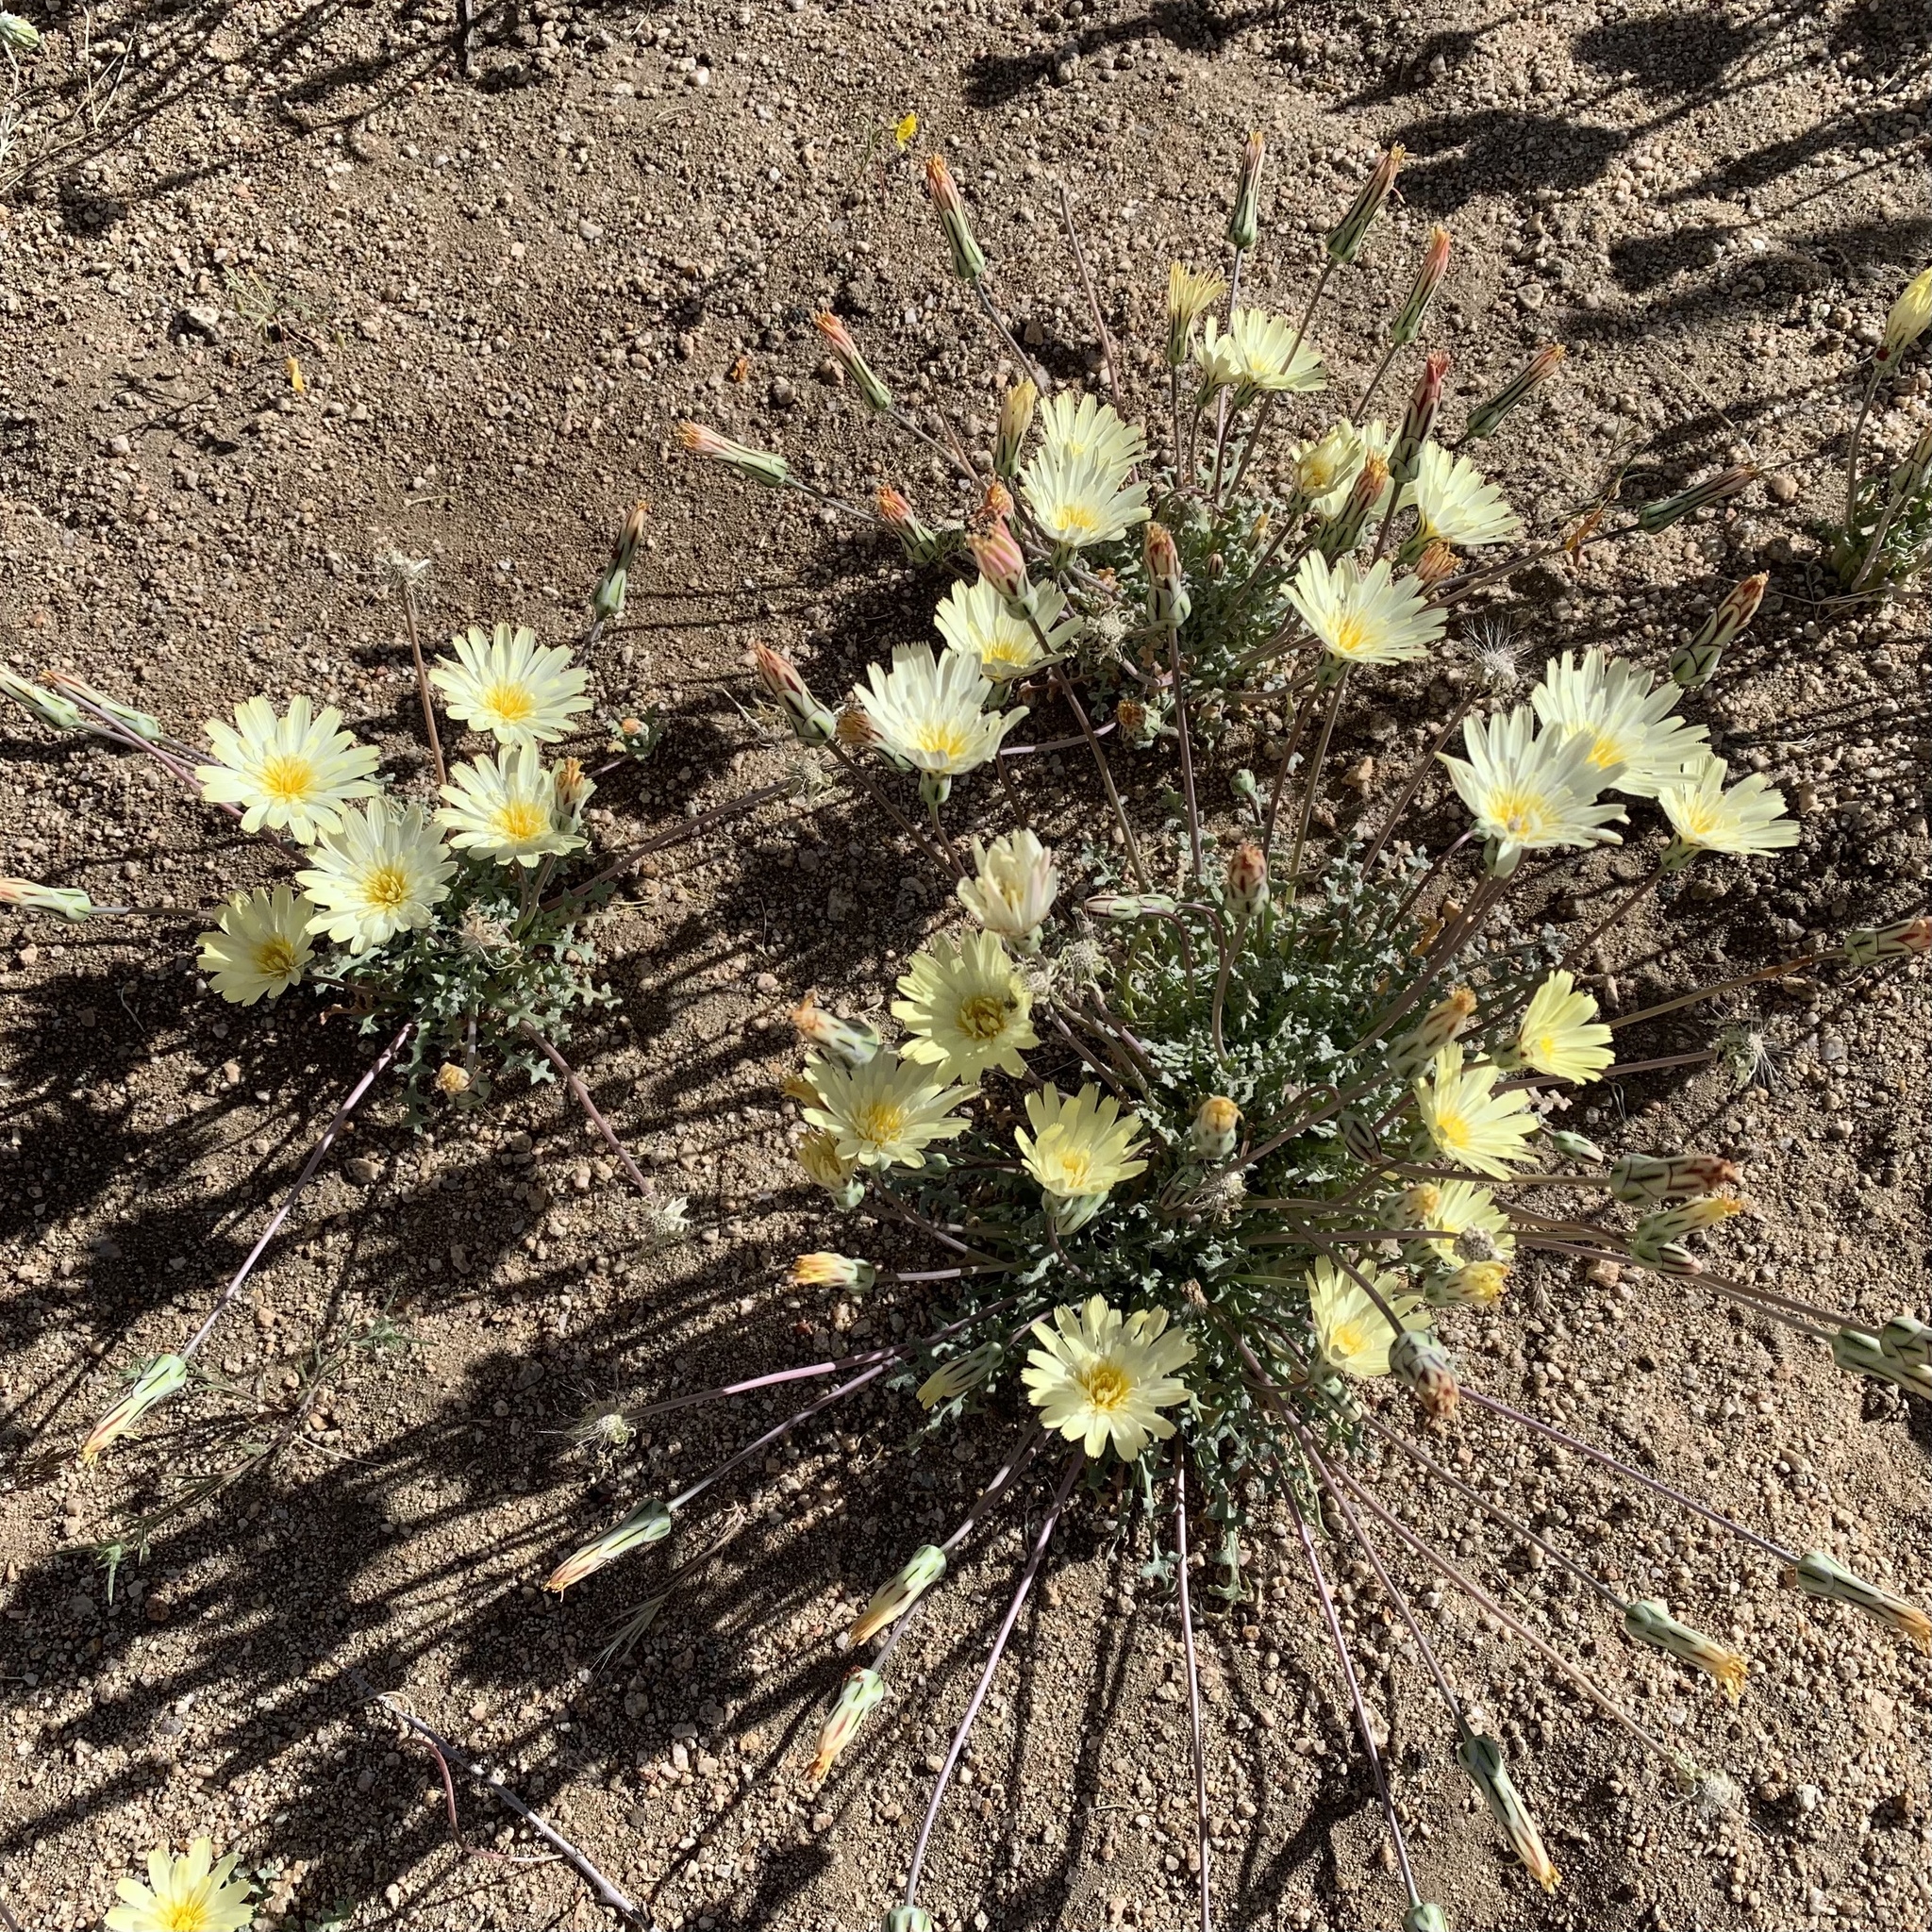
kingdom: Plantae
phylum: Tracheophyta
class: Magnoliopsida
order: Asterales
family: Asteraceae
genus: Anisocoma
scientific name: Anisocoma acaulis
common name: Scalebud
